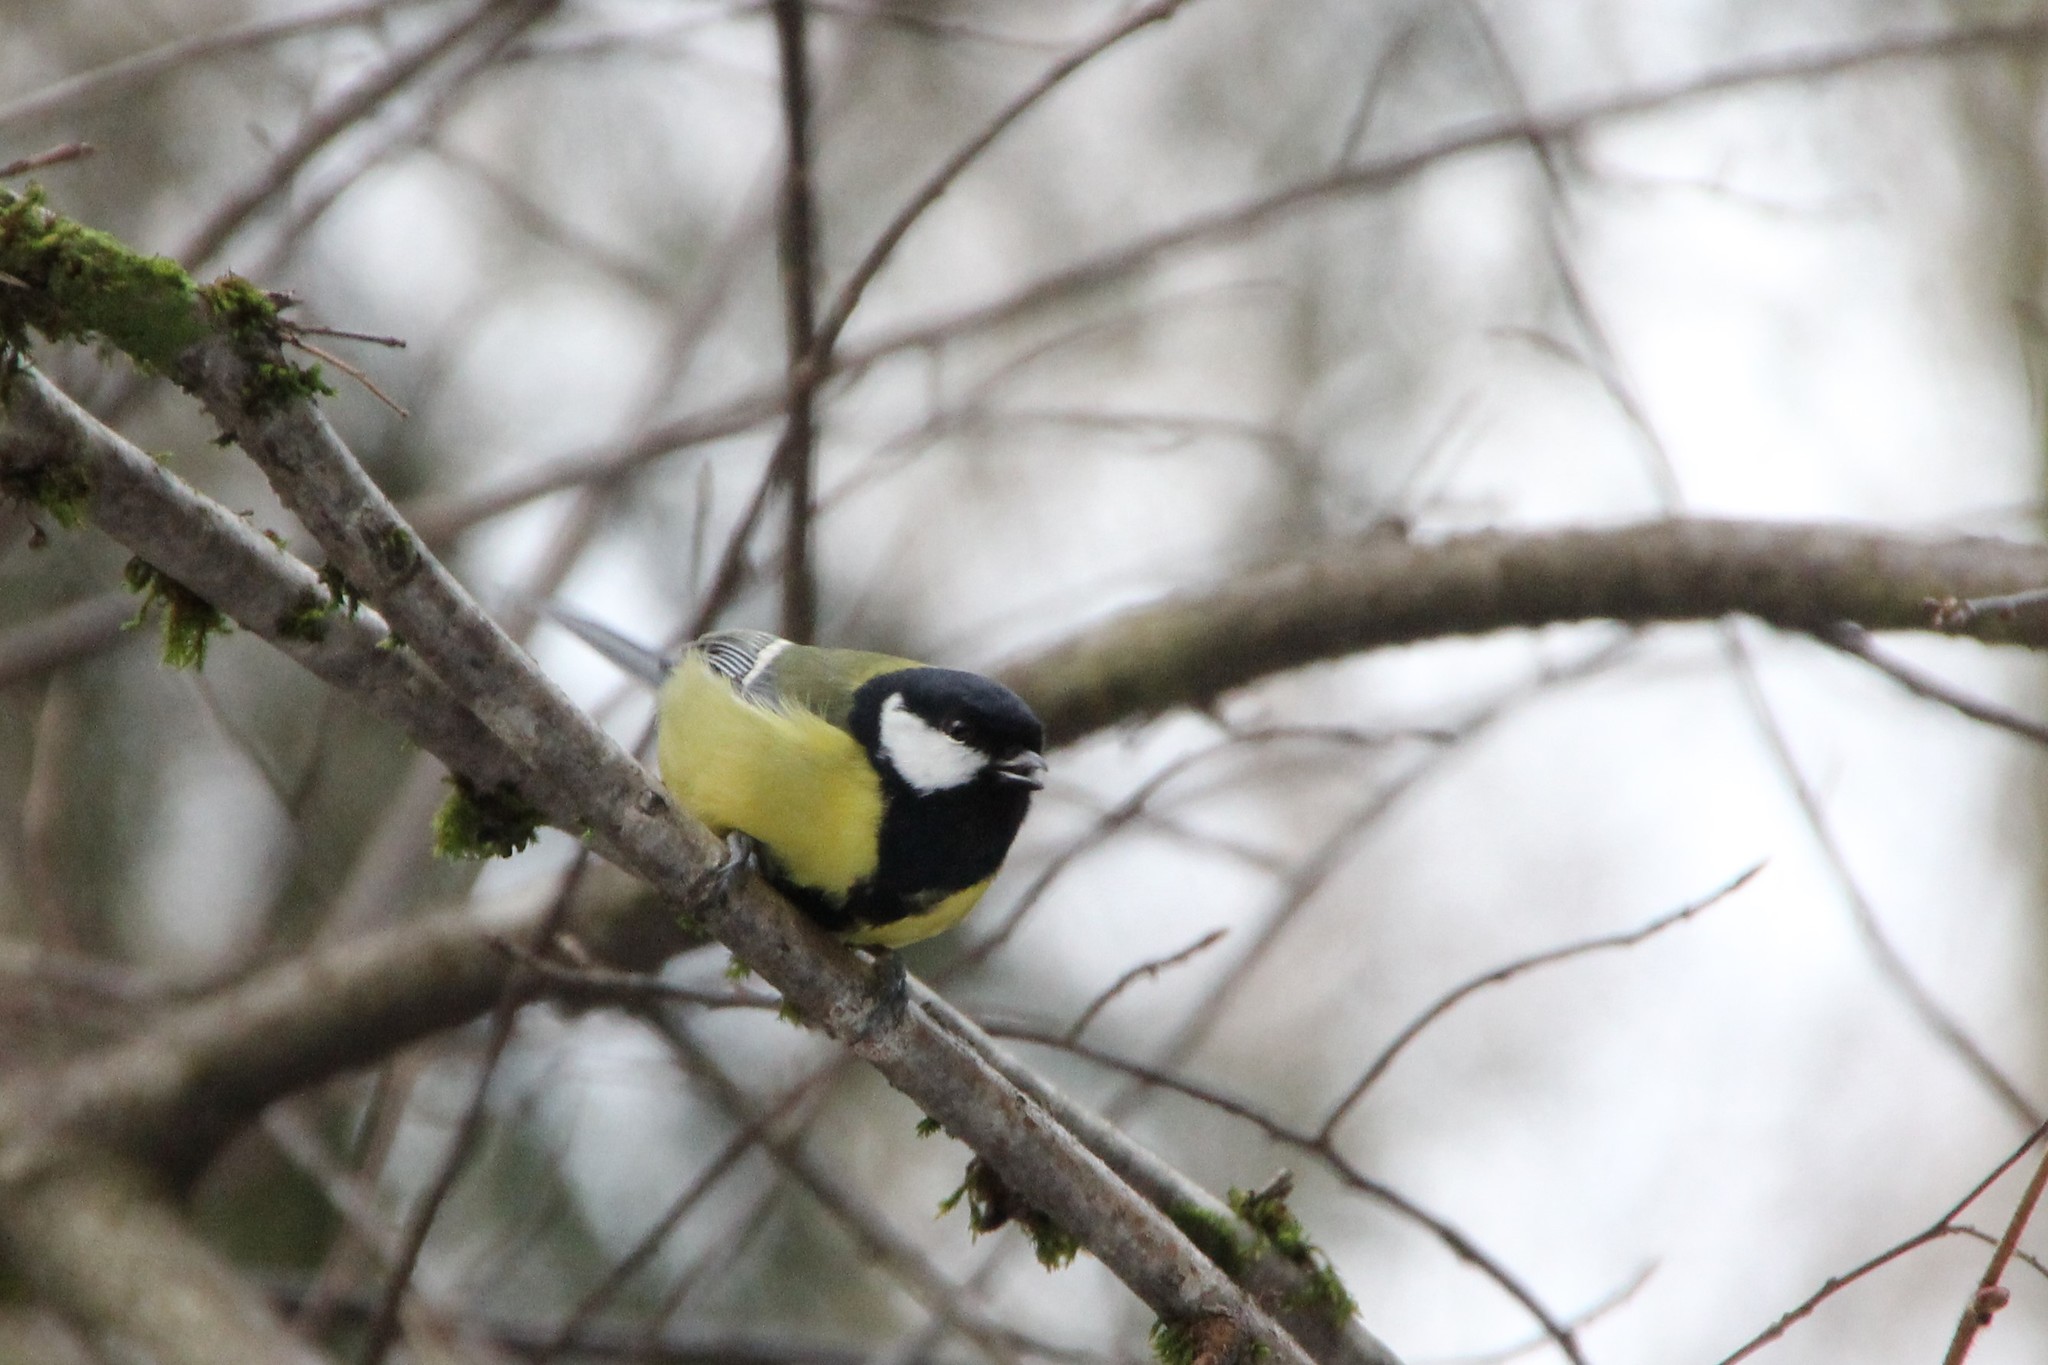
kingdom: Animalia
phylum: Chordata
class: Aves
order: Passeriformes
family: Paridae
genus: Parus
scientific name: Parus major
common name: Great tit
